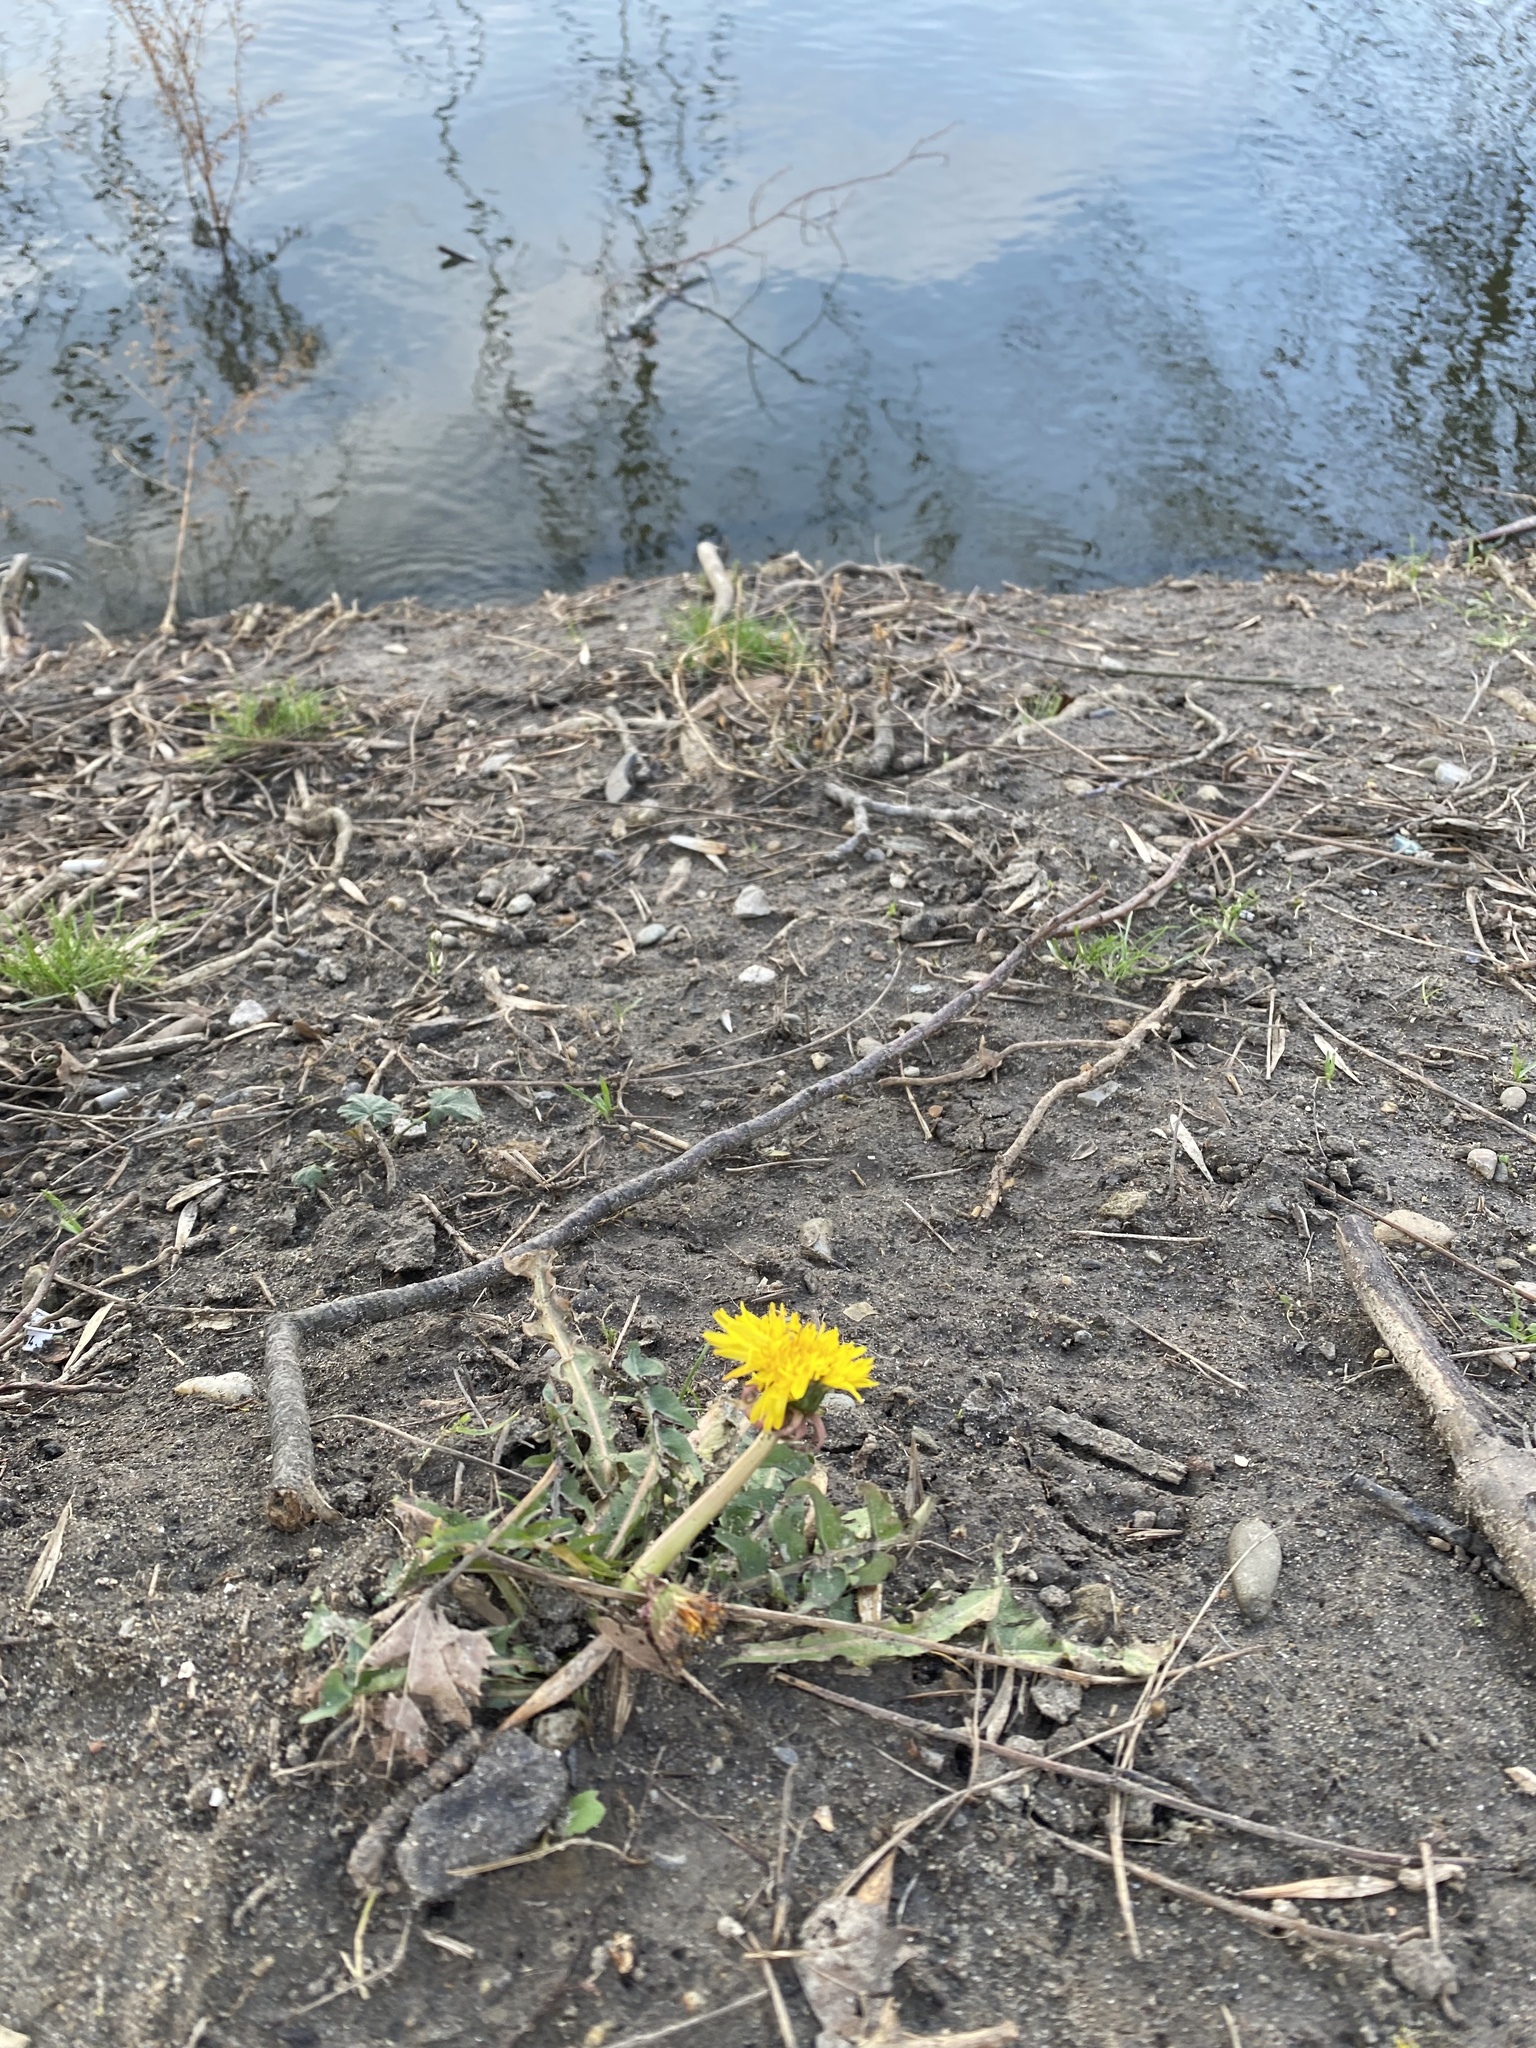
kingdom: Plantae
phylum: Tracheophyta
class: Magnoliopsida
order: Asterales
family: Asteraceae
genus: Taraxacum
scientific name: Taraxacum officinale
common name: Common dandelion
